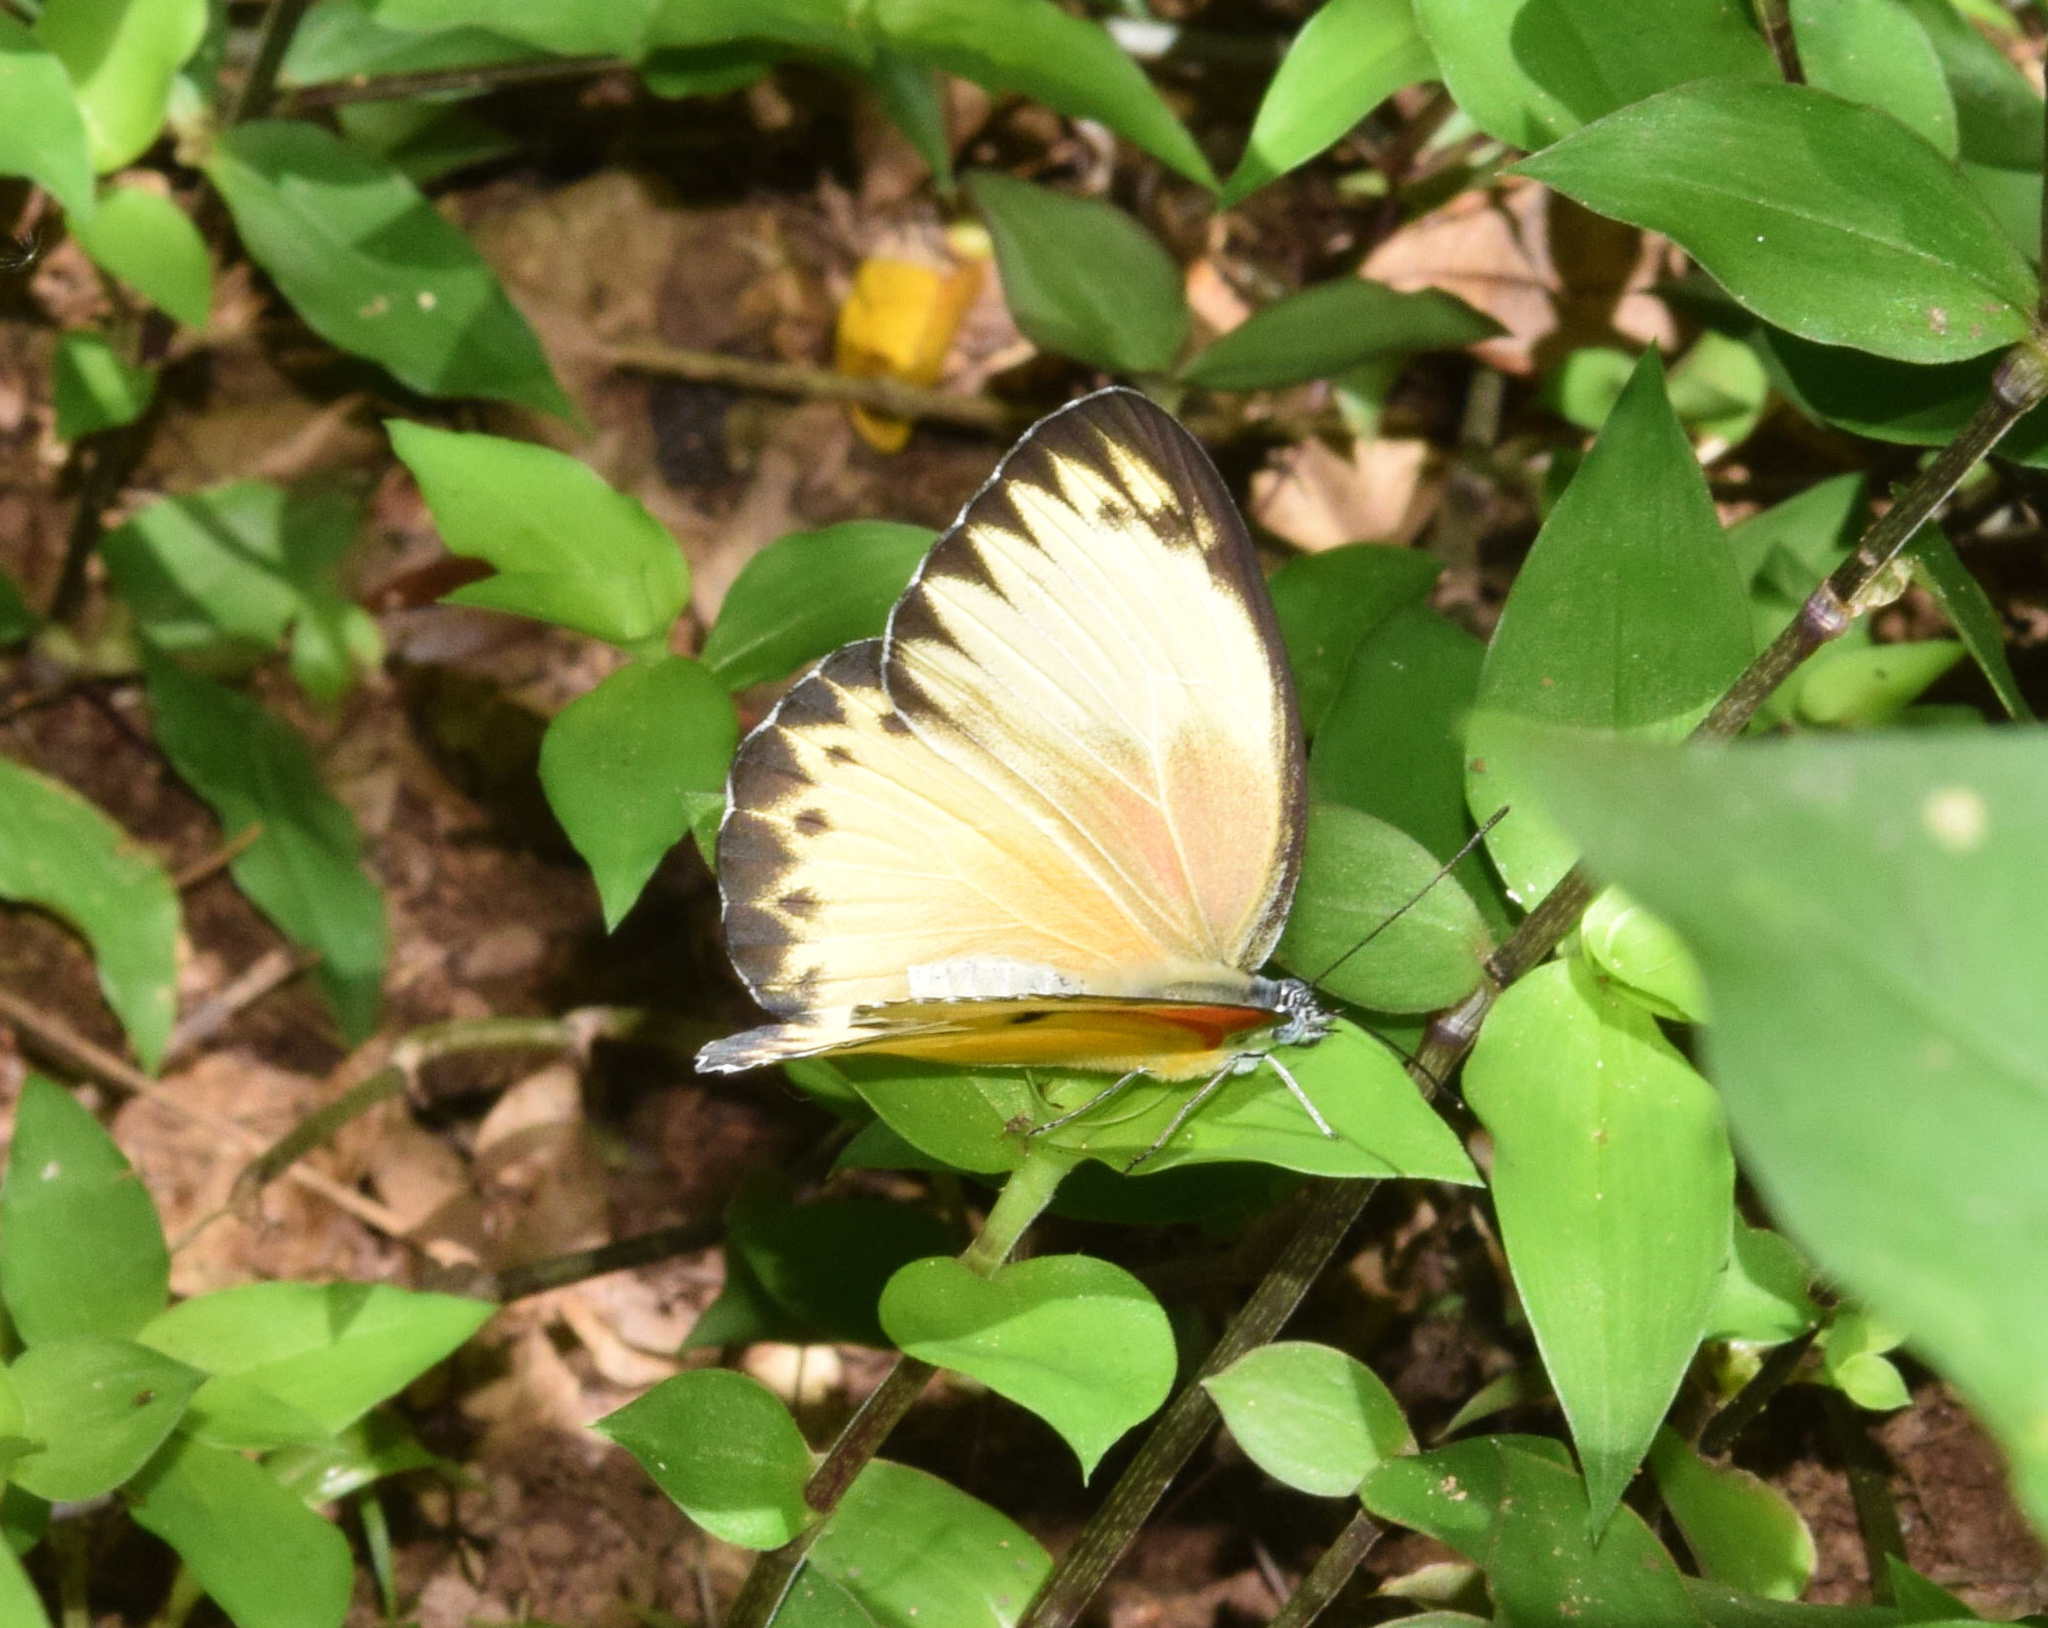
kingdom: Animalia
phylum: Arthropoda
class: Insecta
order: Lepidoptera
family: Pieridae
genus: Belenois
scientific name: Belenois thysa
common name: False dotted border
